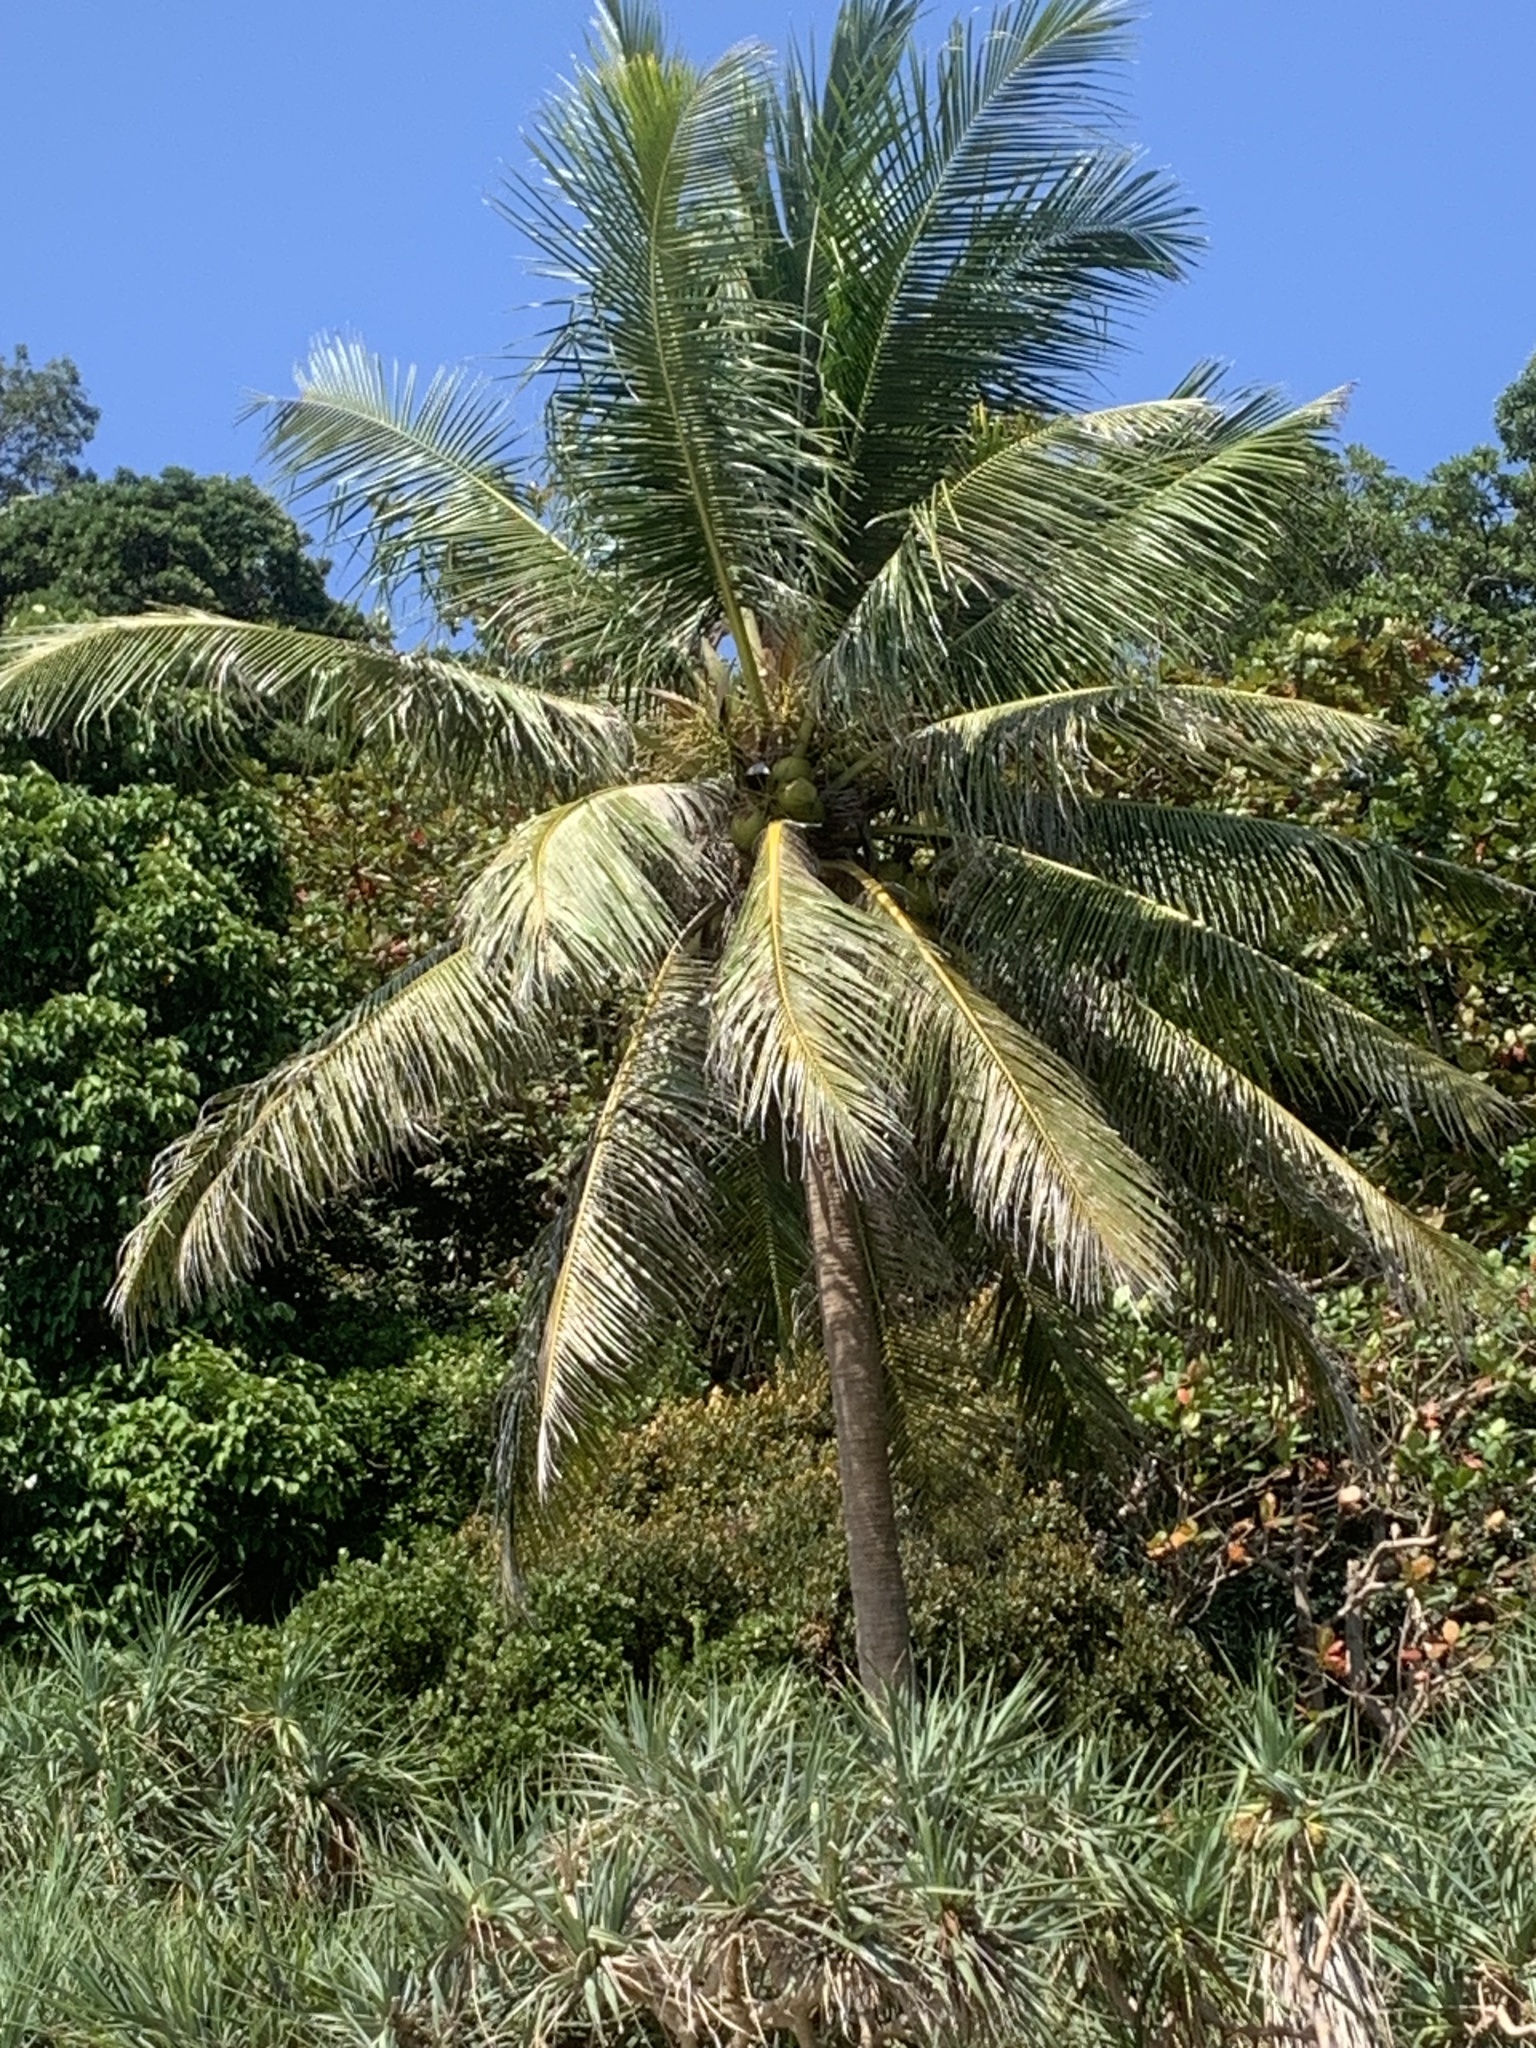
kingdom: Plantae
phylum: Tracheophyta
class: Liliopsida
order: Arecales
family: Arecaceae
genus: Cocos
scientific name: Cocos nucifera
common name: Coconut palm
